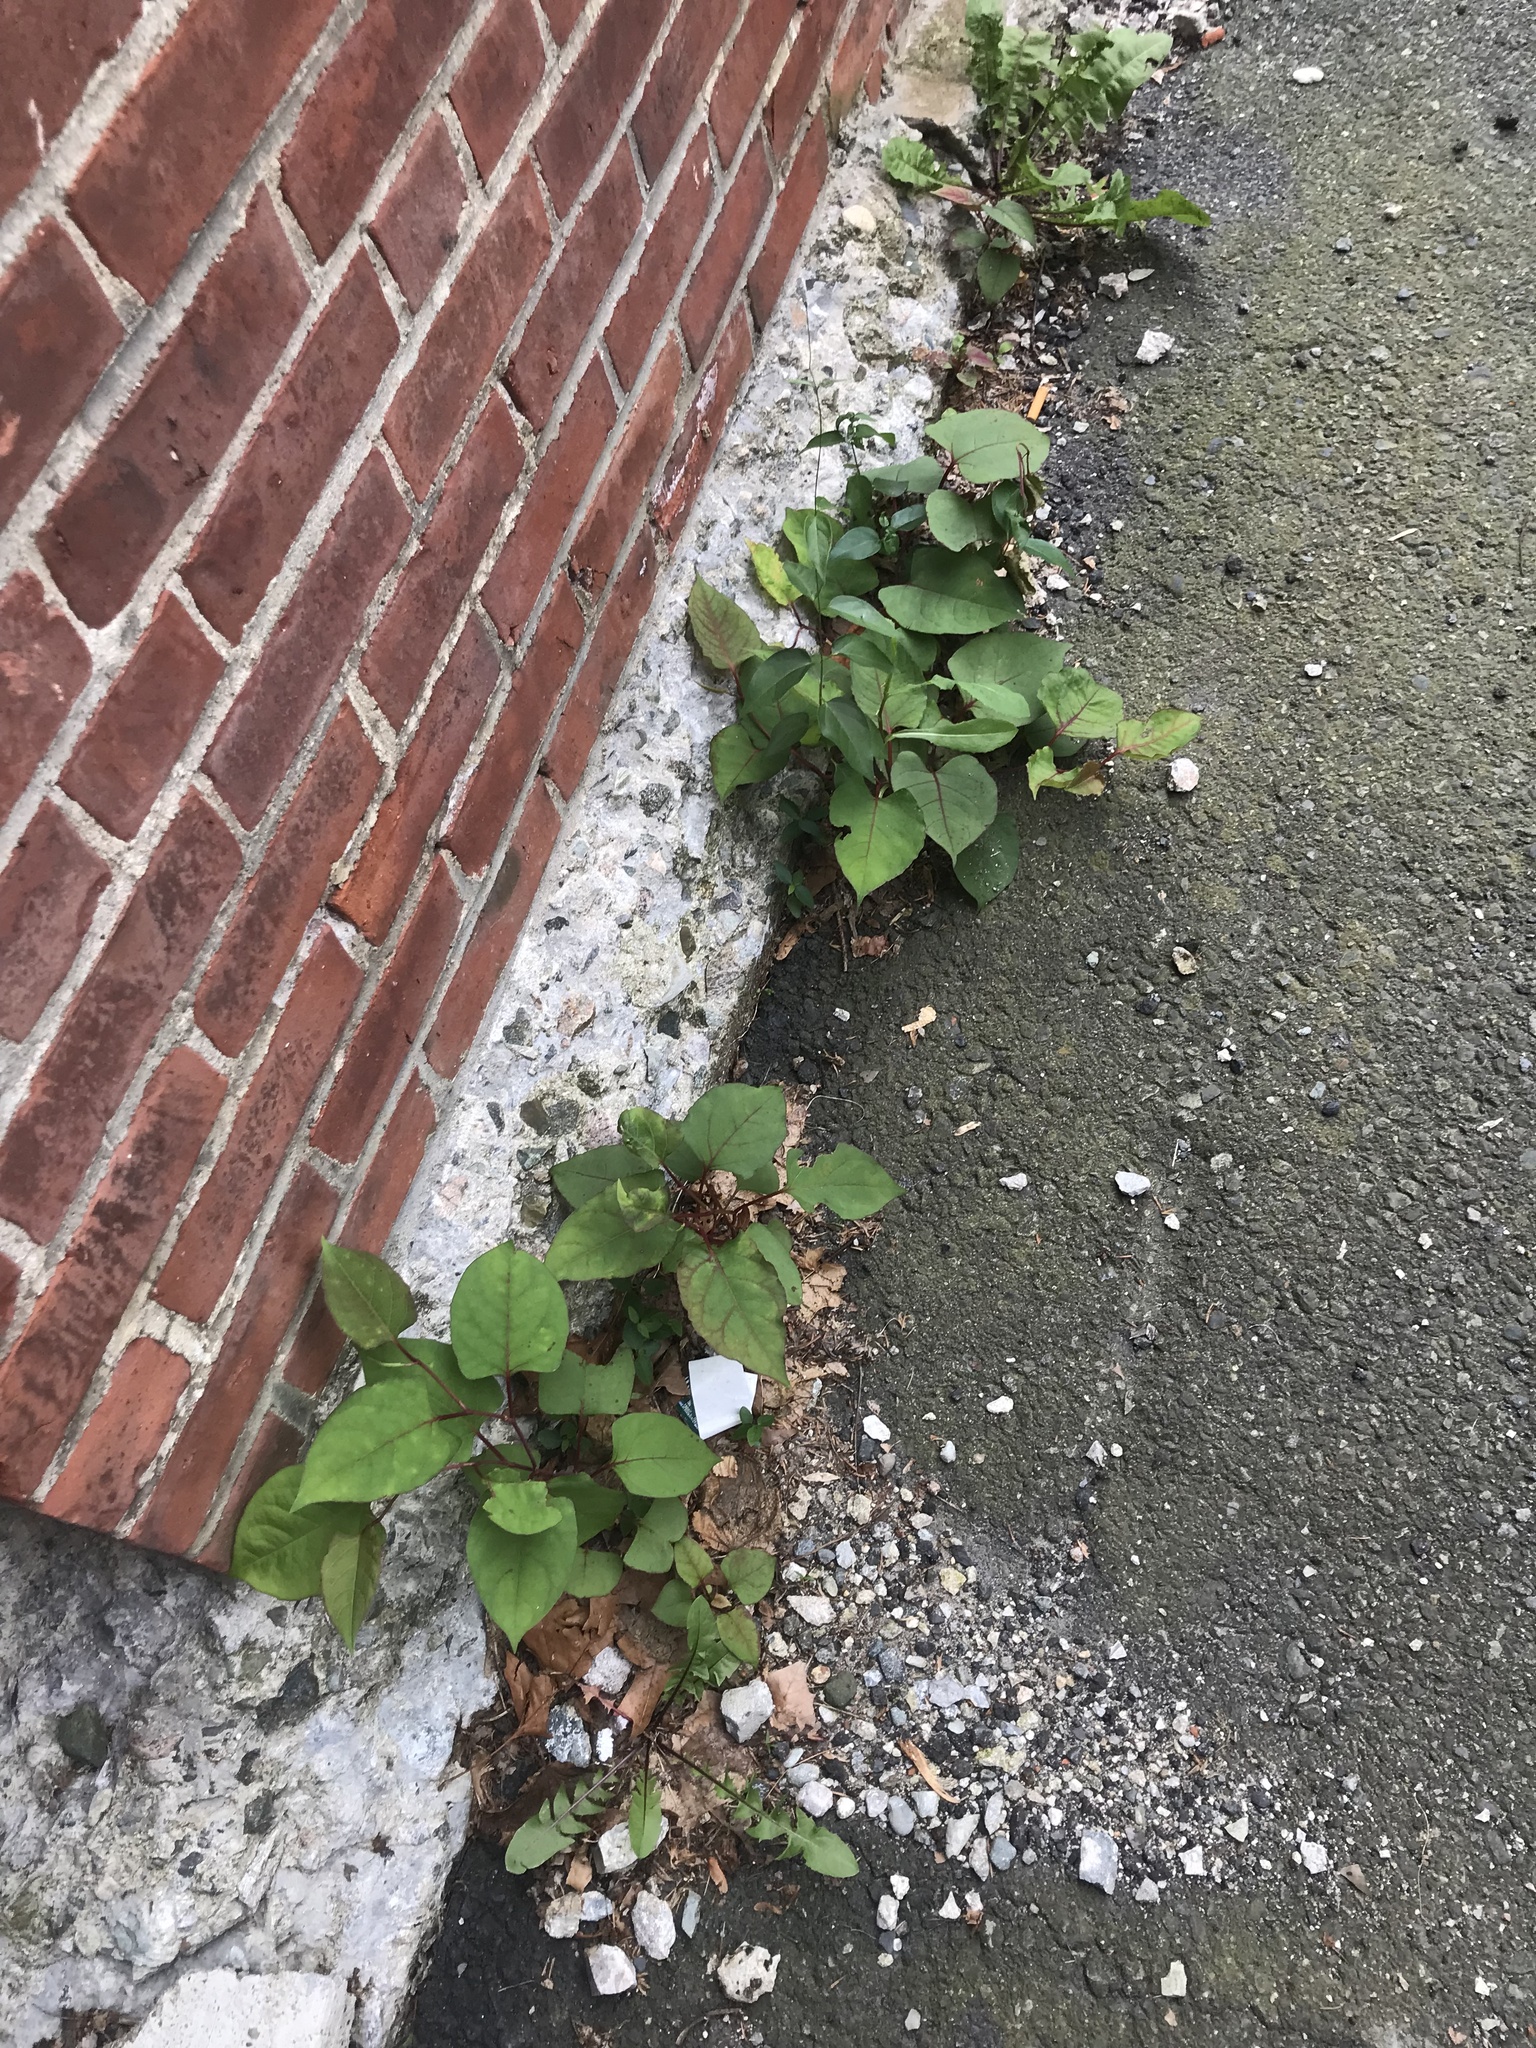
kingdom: Plantae
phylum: Tracheophyta
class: Magnoliopsida
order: Caryophyllales
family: Polygonaceae
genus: Reynoutria
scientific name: Reynoutria japonica
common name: Japanese knotweed
